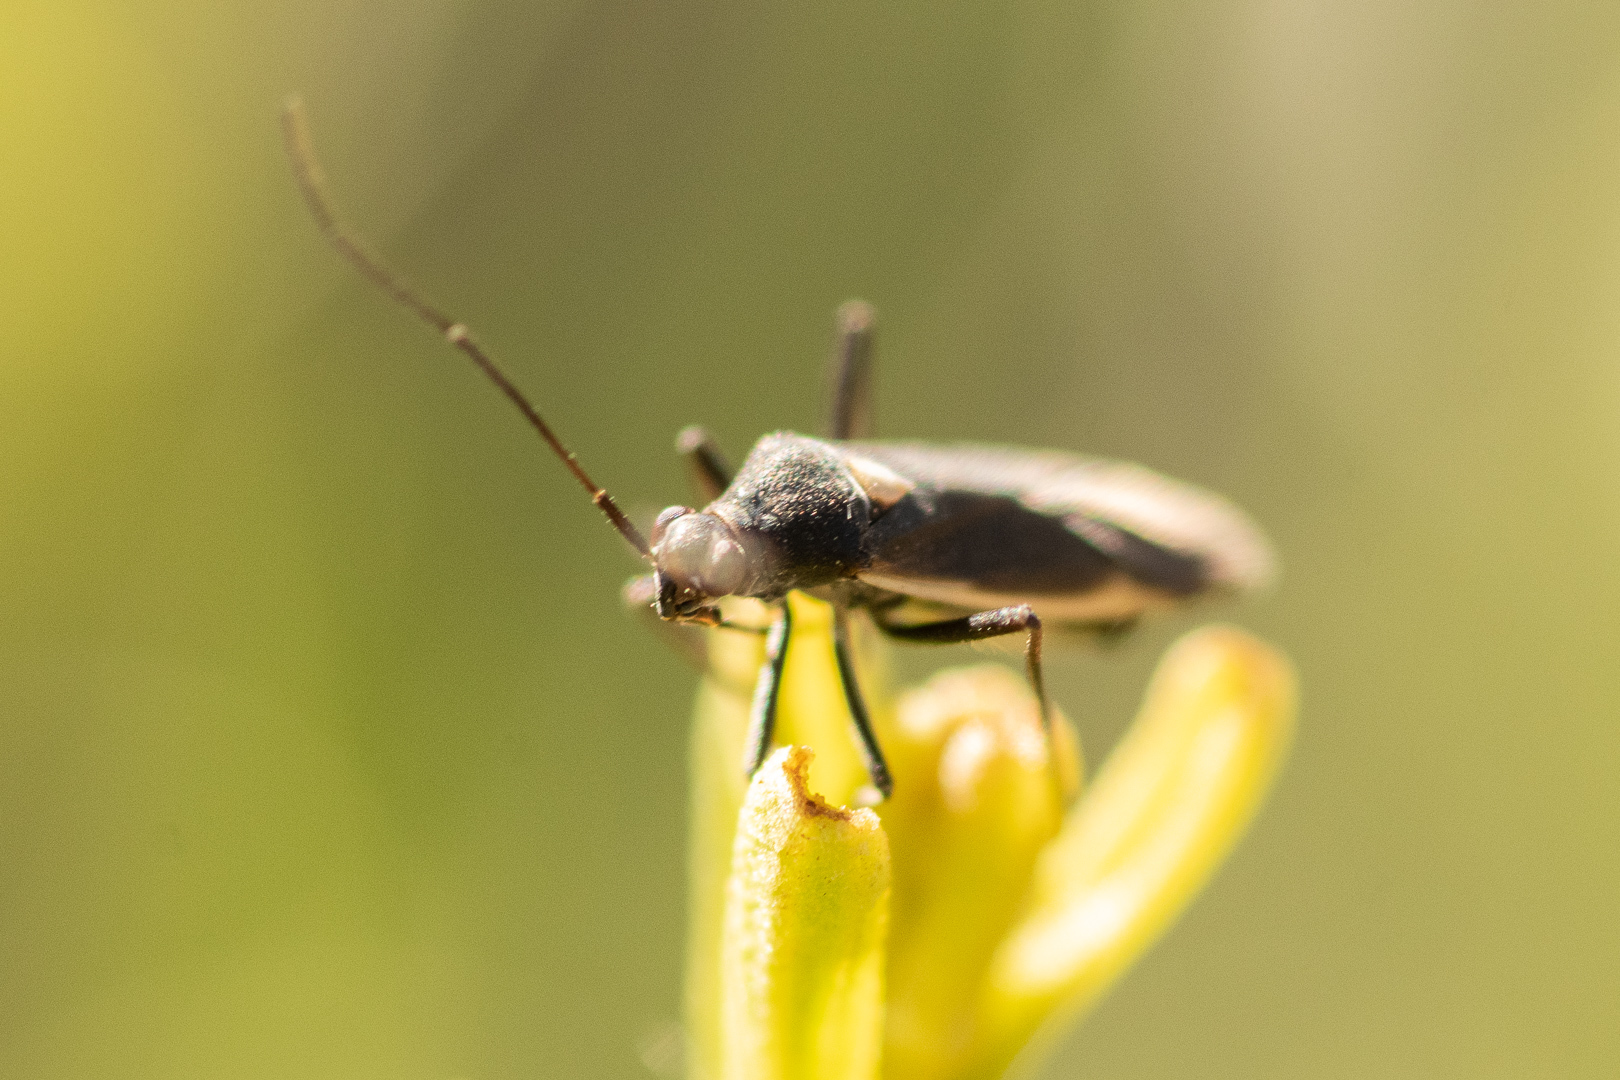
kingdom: Animalia
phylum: Arthropoda
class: Insecta
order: Hemiptera
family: Miridae
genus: Stenoparedra
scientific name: Stenoparedra
